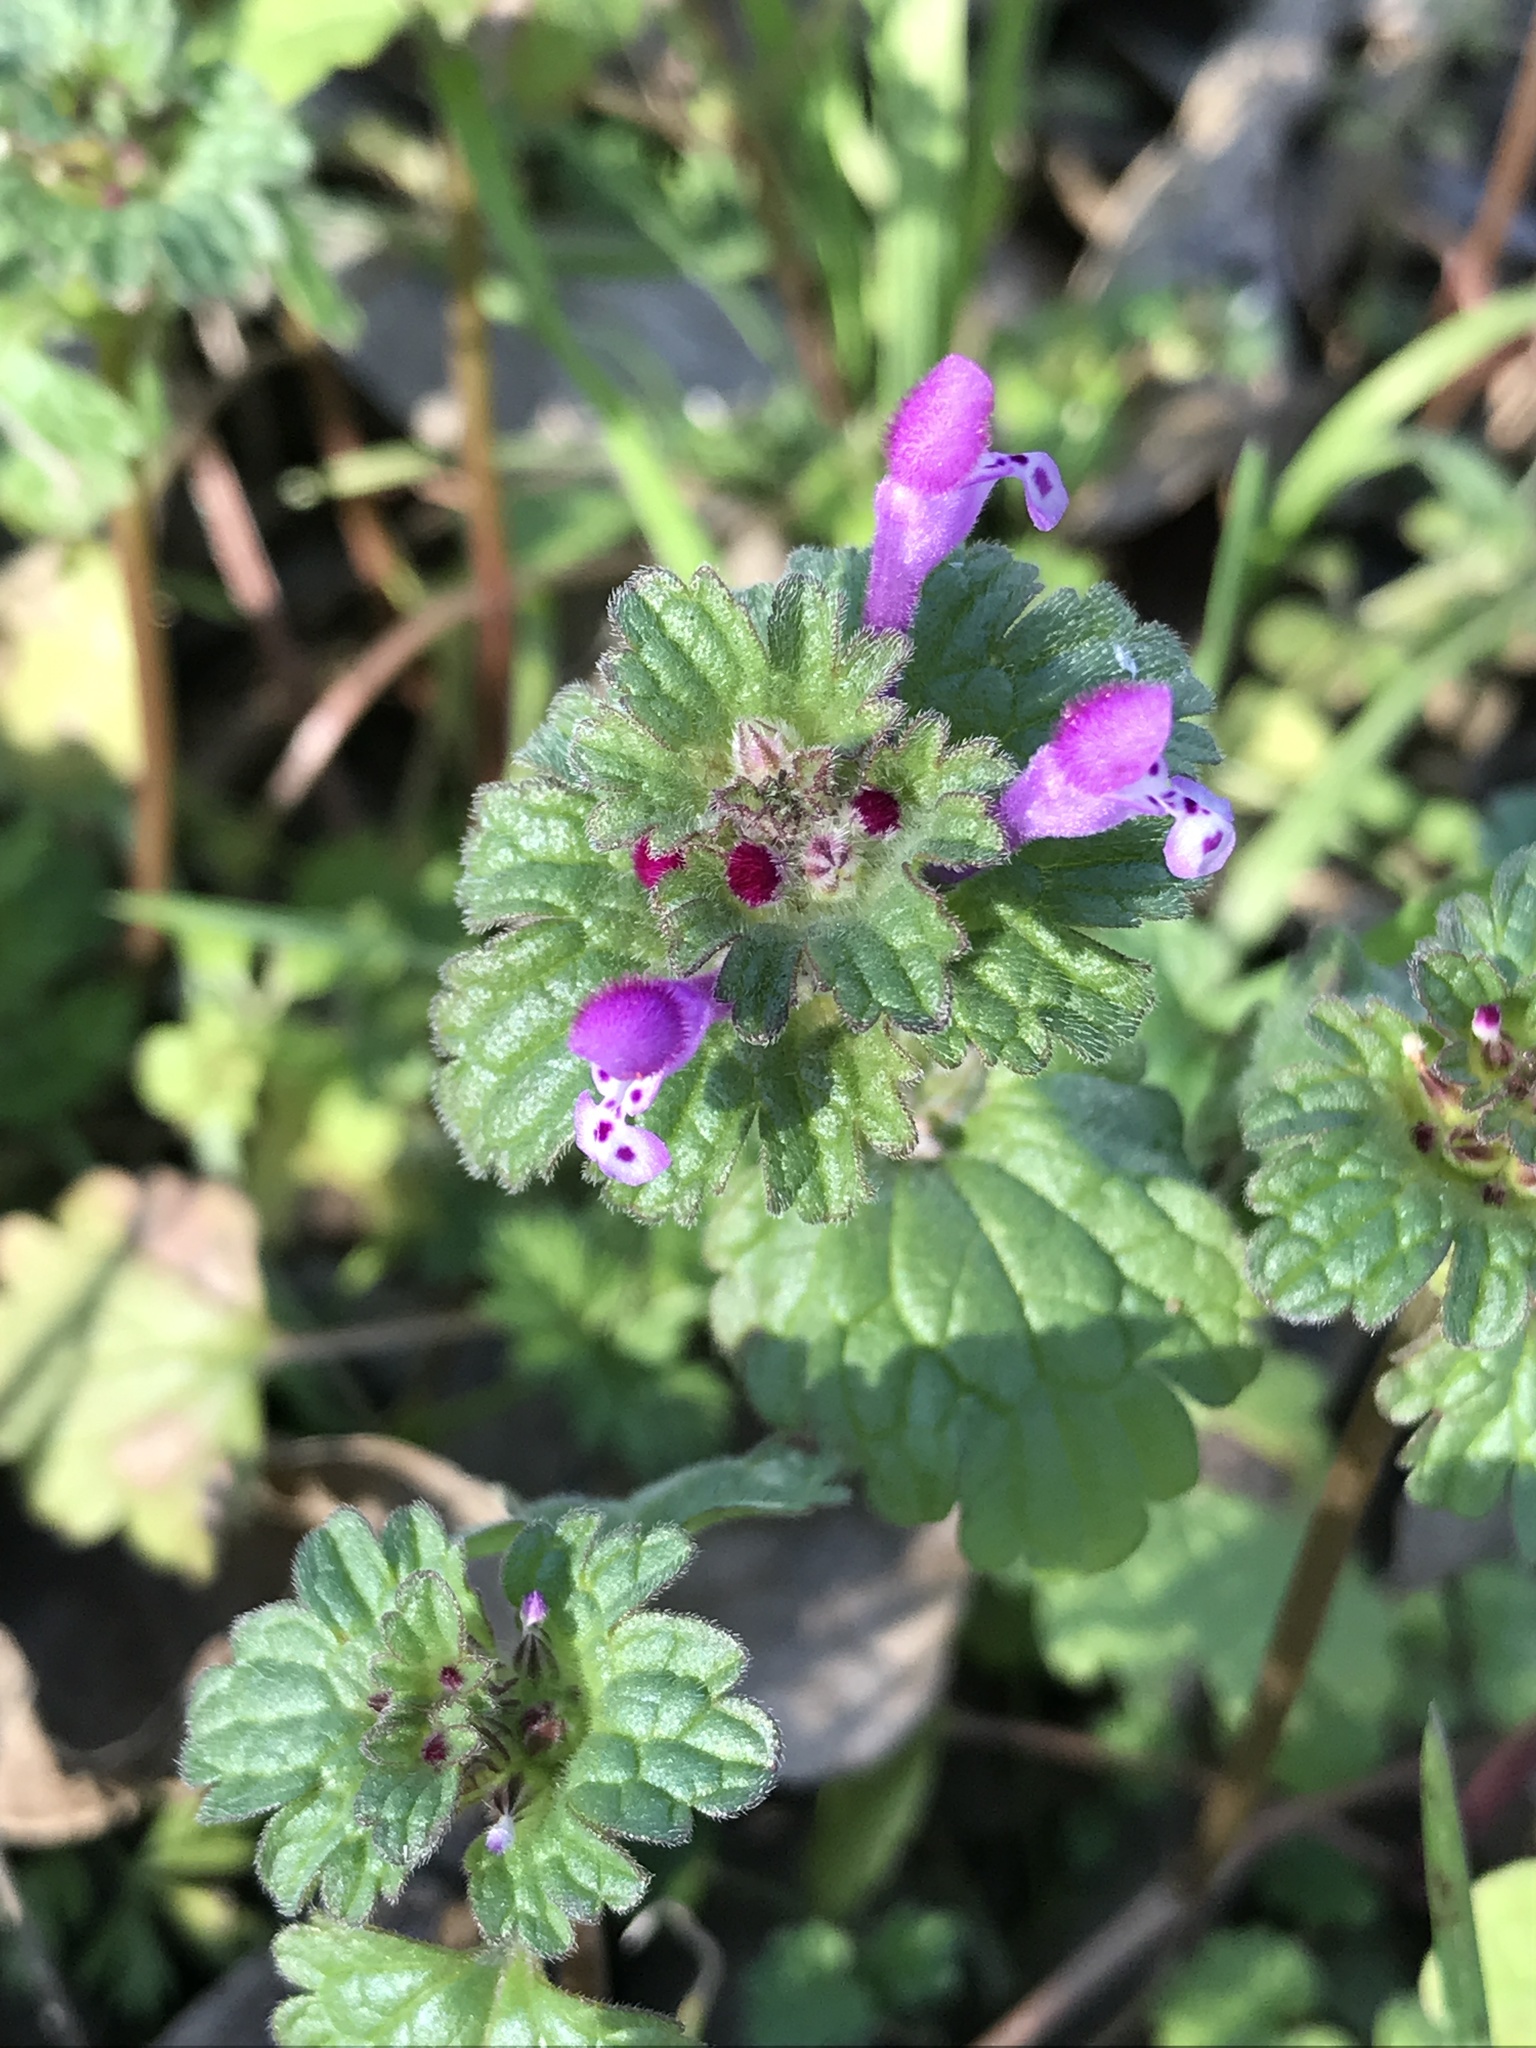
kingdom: Plantae
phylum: Tracheophyta
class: Magnoliopsida
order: Lamiales
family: Lamiaceae
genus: Lamium
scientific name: Lamium amplexicaule
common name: Henbit dead-nettle
